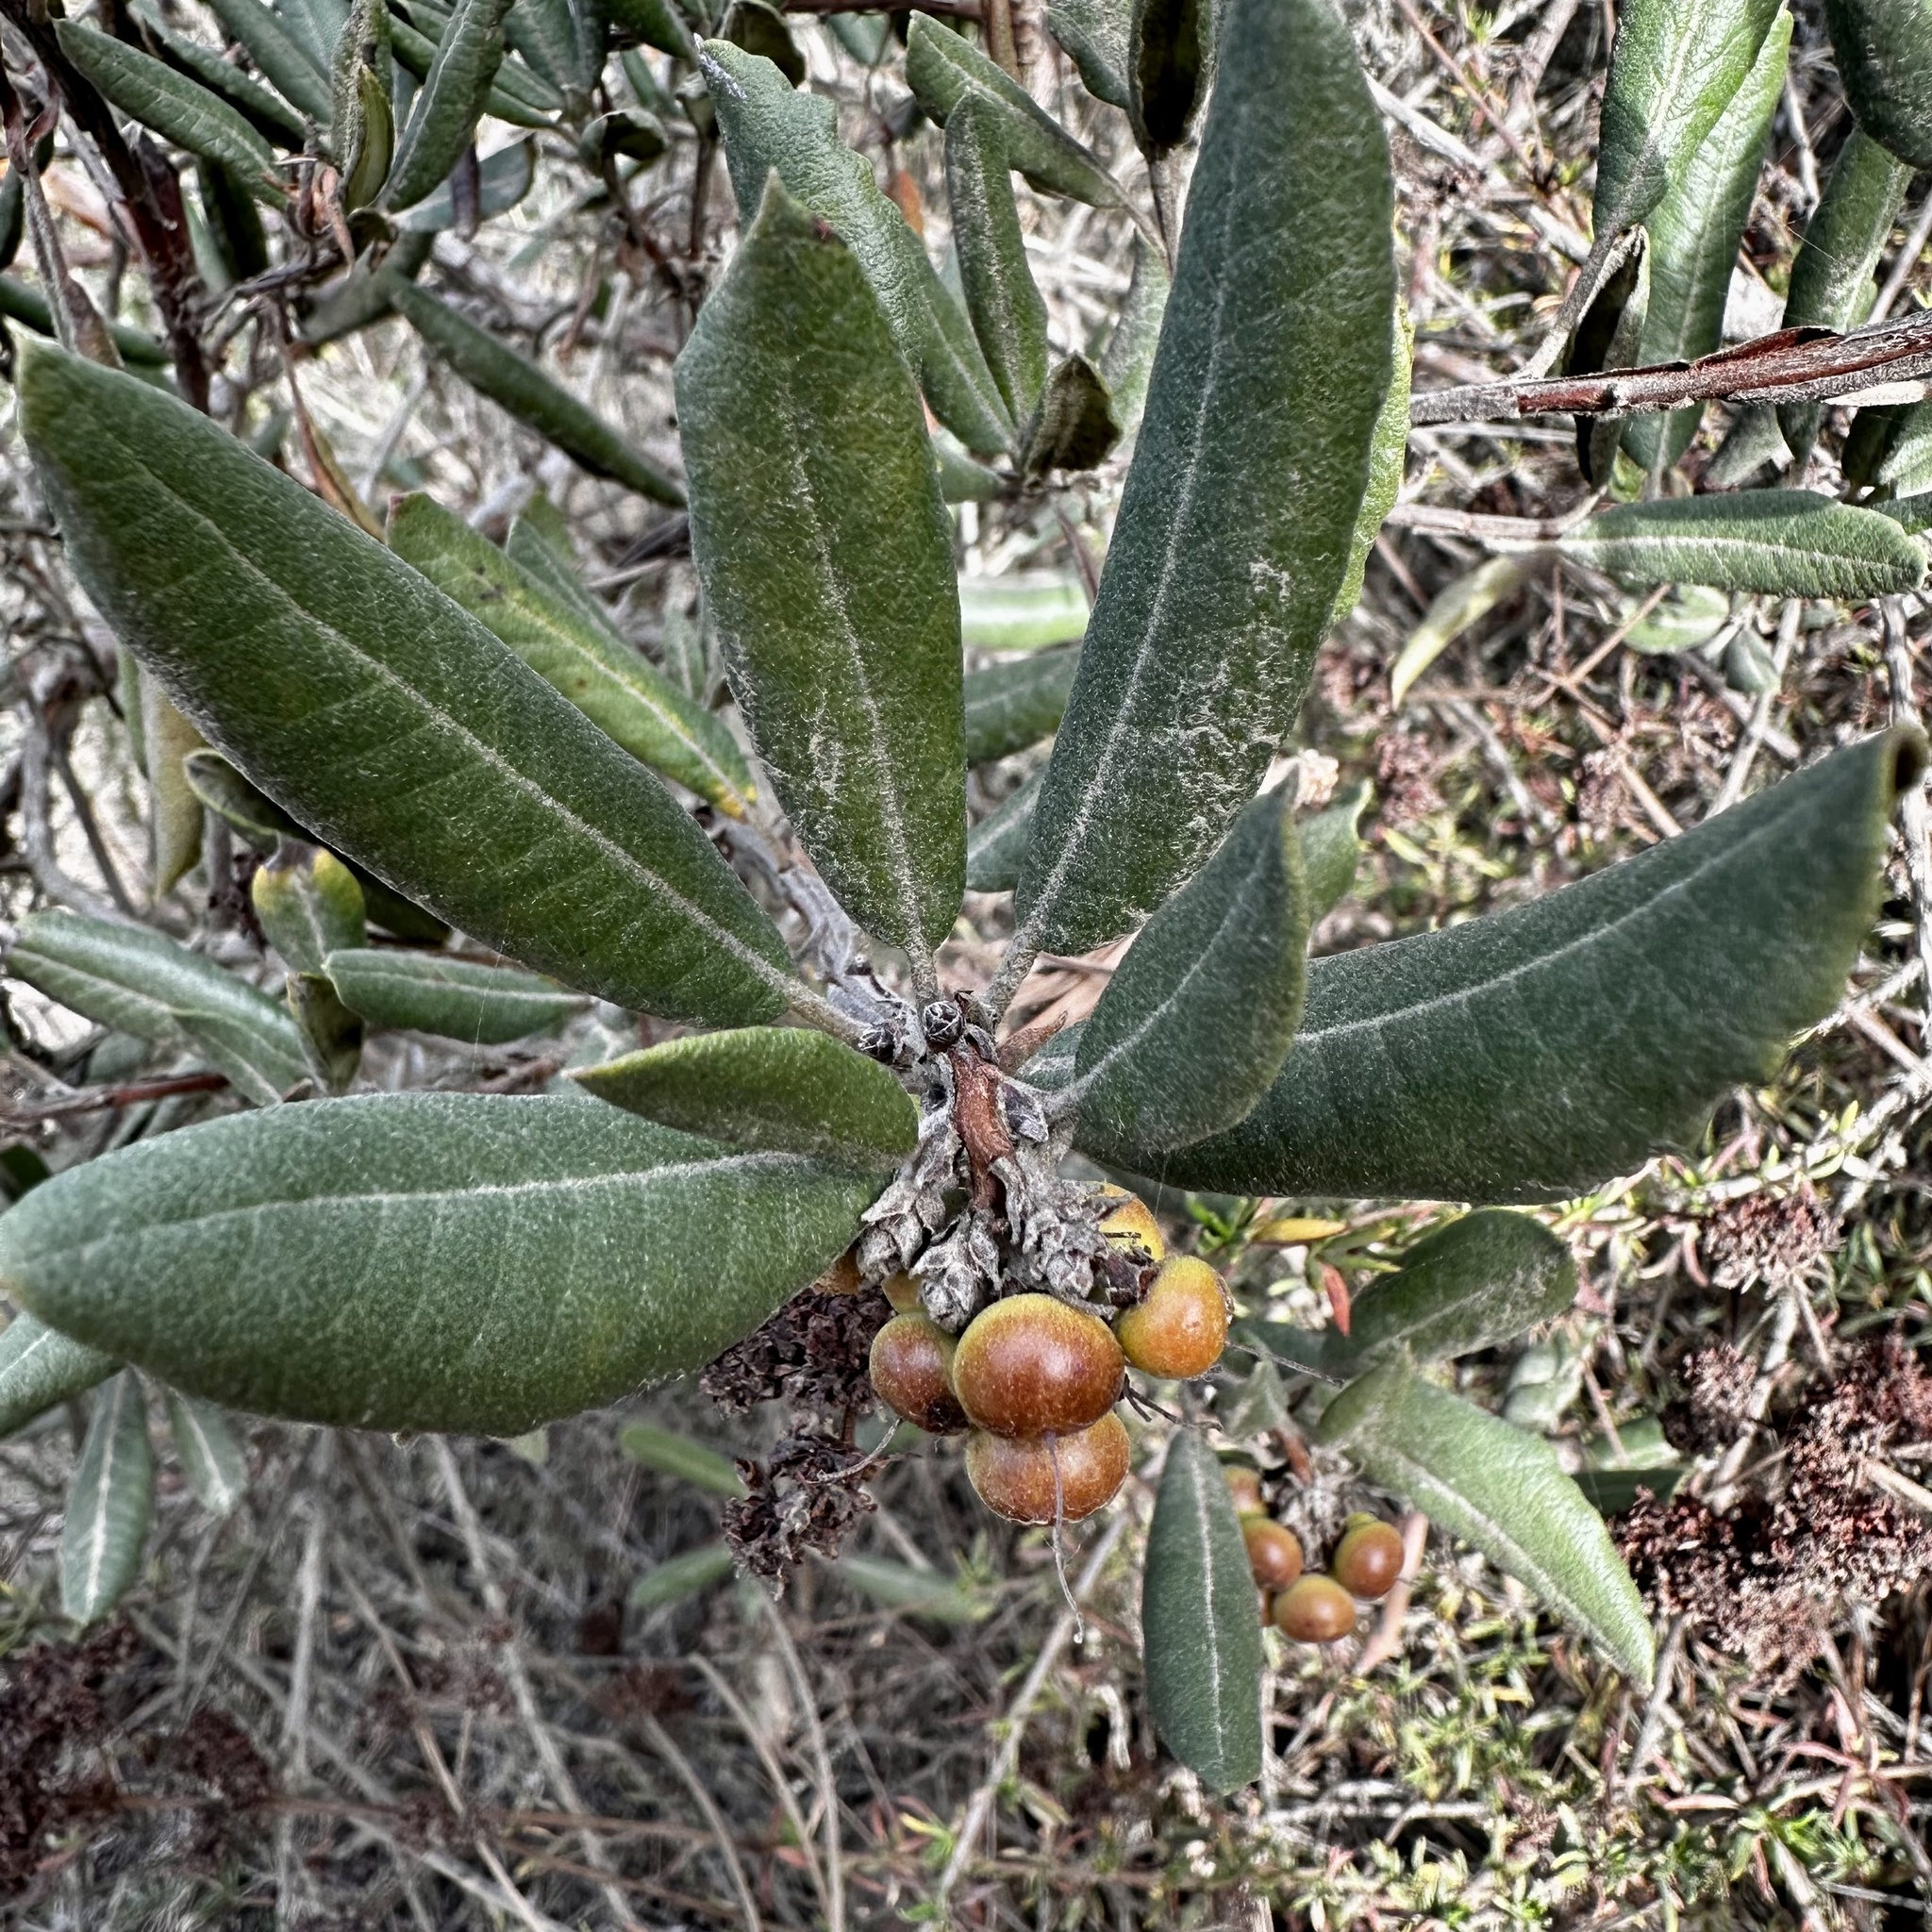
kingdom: Plantae
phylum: Tracheophyta
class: Magnoliopsida
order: Ericales
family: Ericaceae
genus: Arctostaphylos
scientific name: Arctostaphylos bicolor
